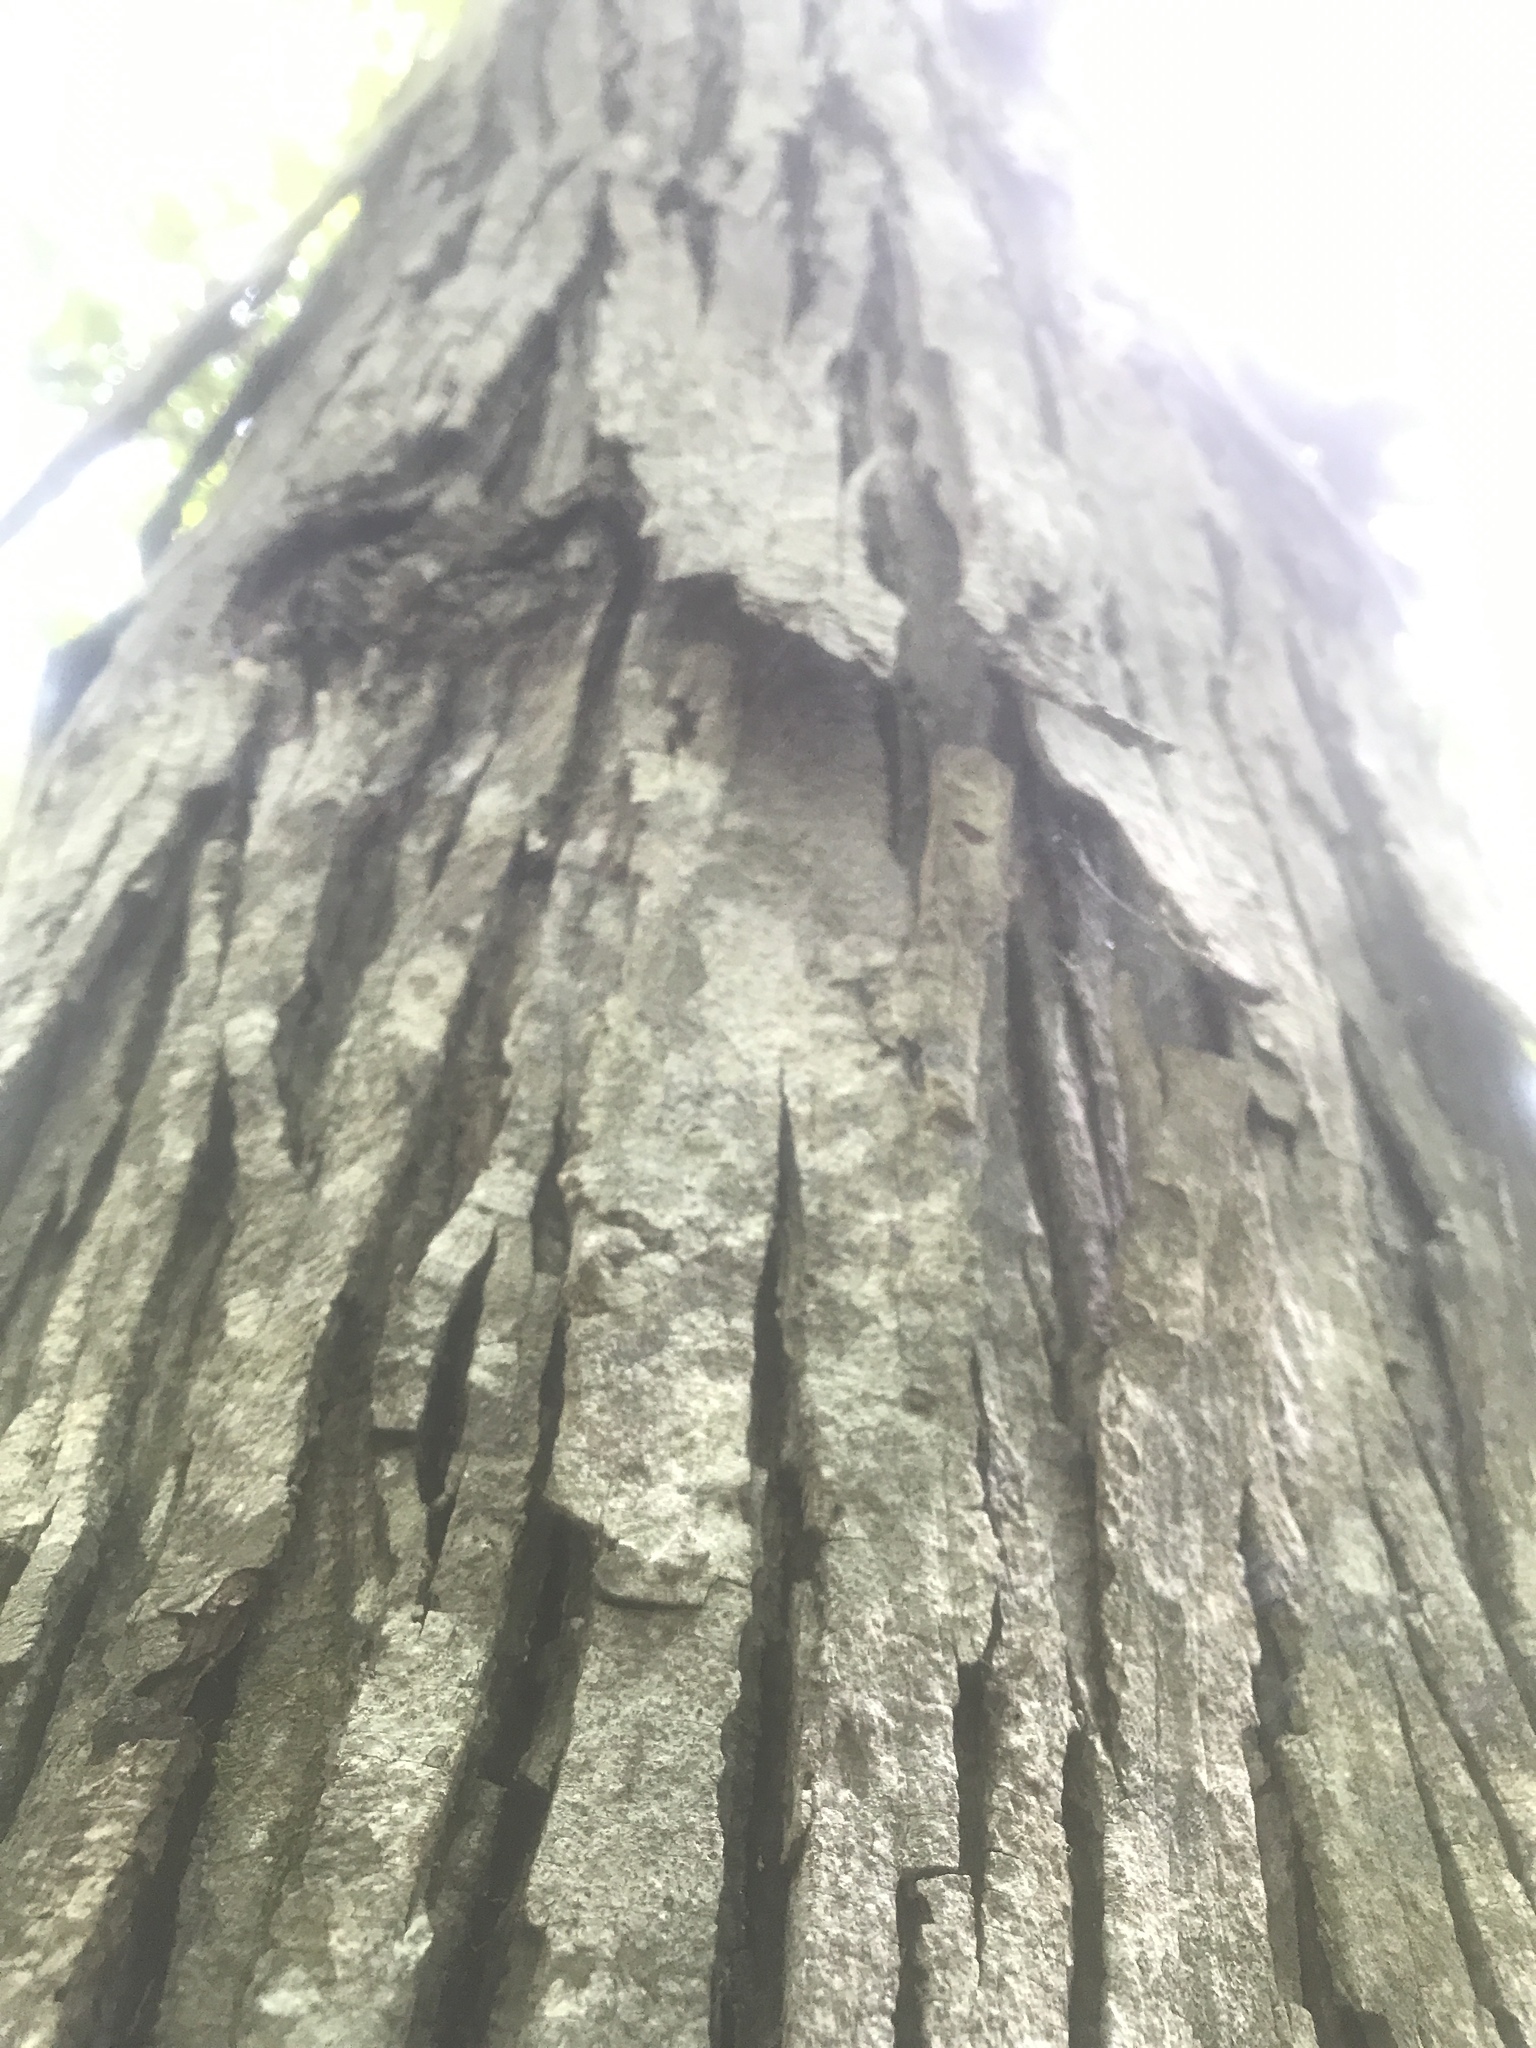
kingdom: Plantae
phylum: Tracheophyta
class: Magnoliopsida
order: Fagales
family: Juglandaceae
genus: Carya
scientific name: Carya carolinae-septentrionalis
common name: Carolina hickory
